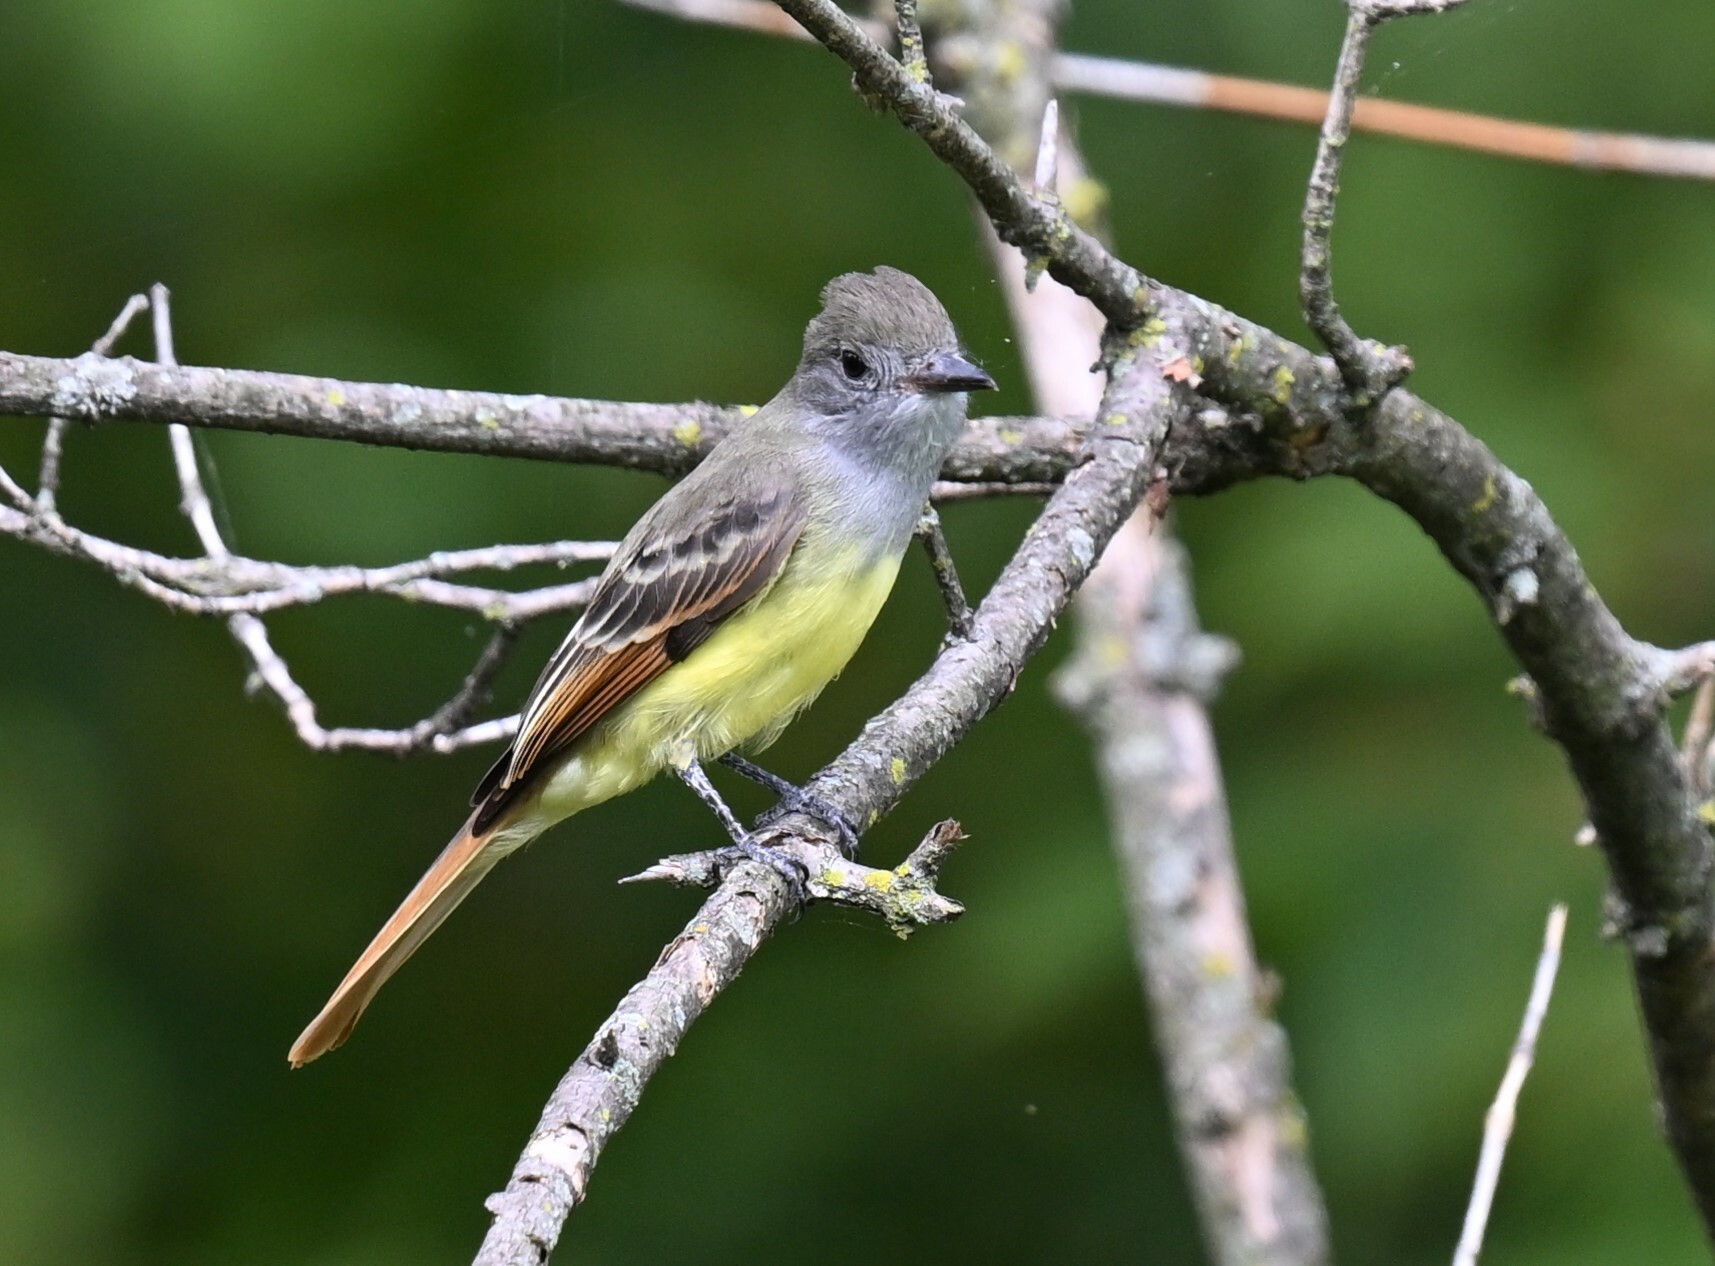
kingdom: Animalia
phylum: Chordata
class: Aves
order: Passeriformes
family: Tyrannidae
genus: Myiarchus
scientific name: Myiarchus crinitus
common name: Great crested flycatcher
